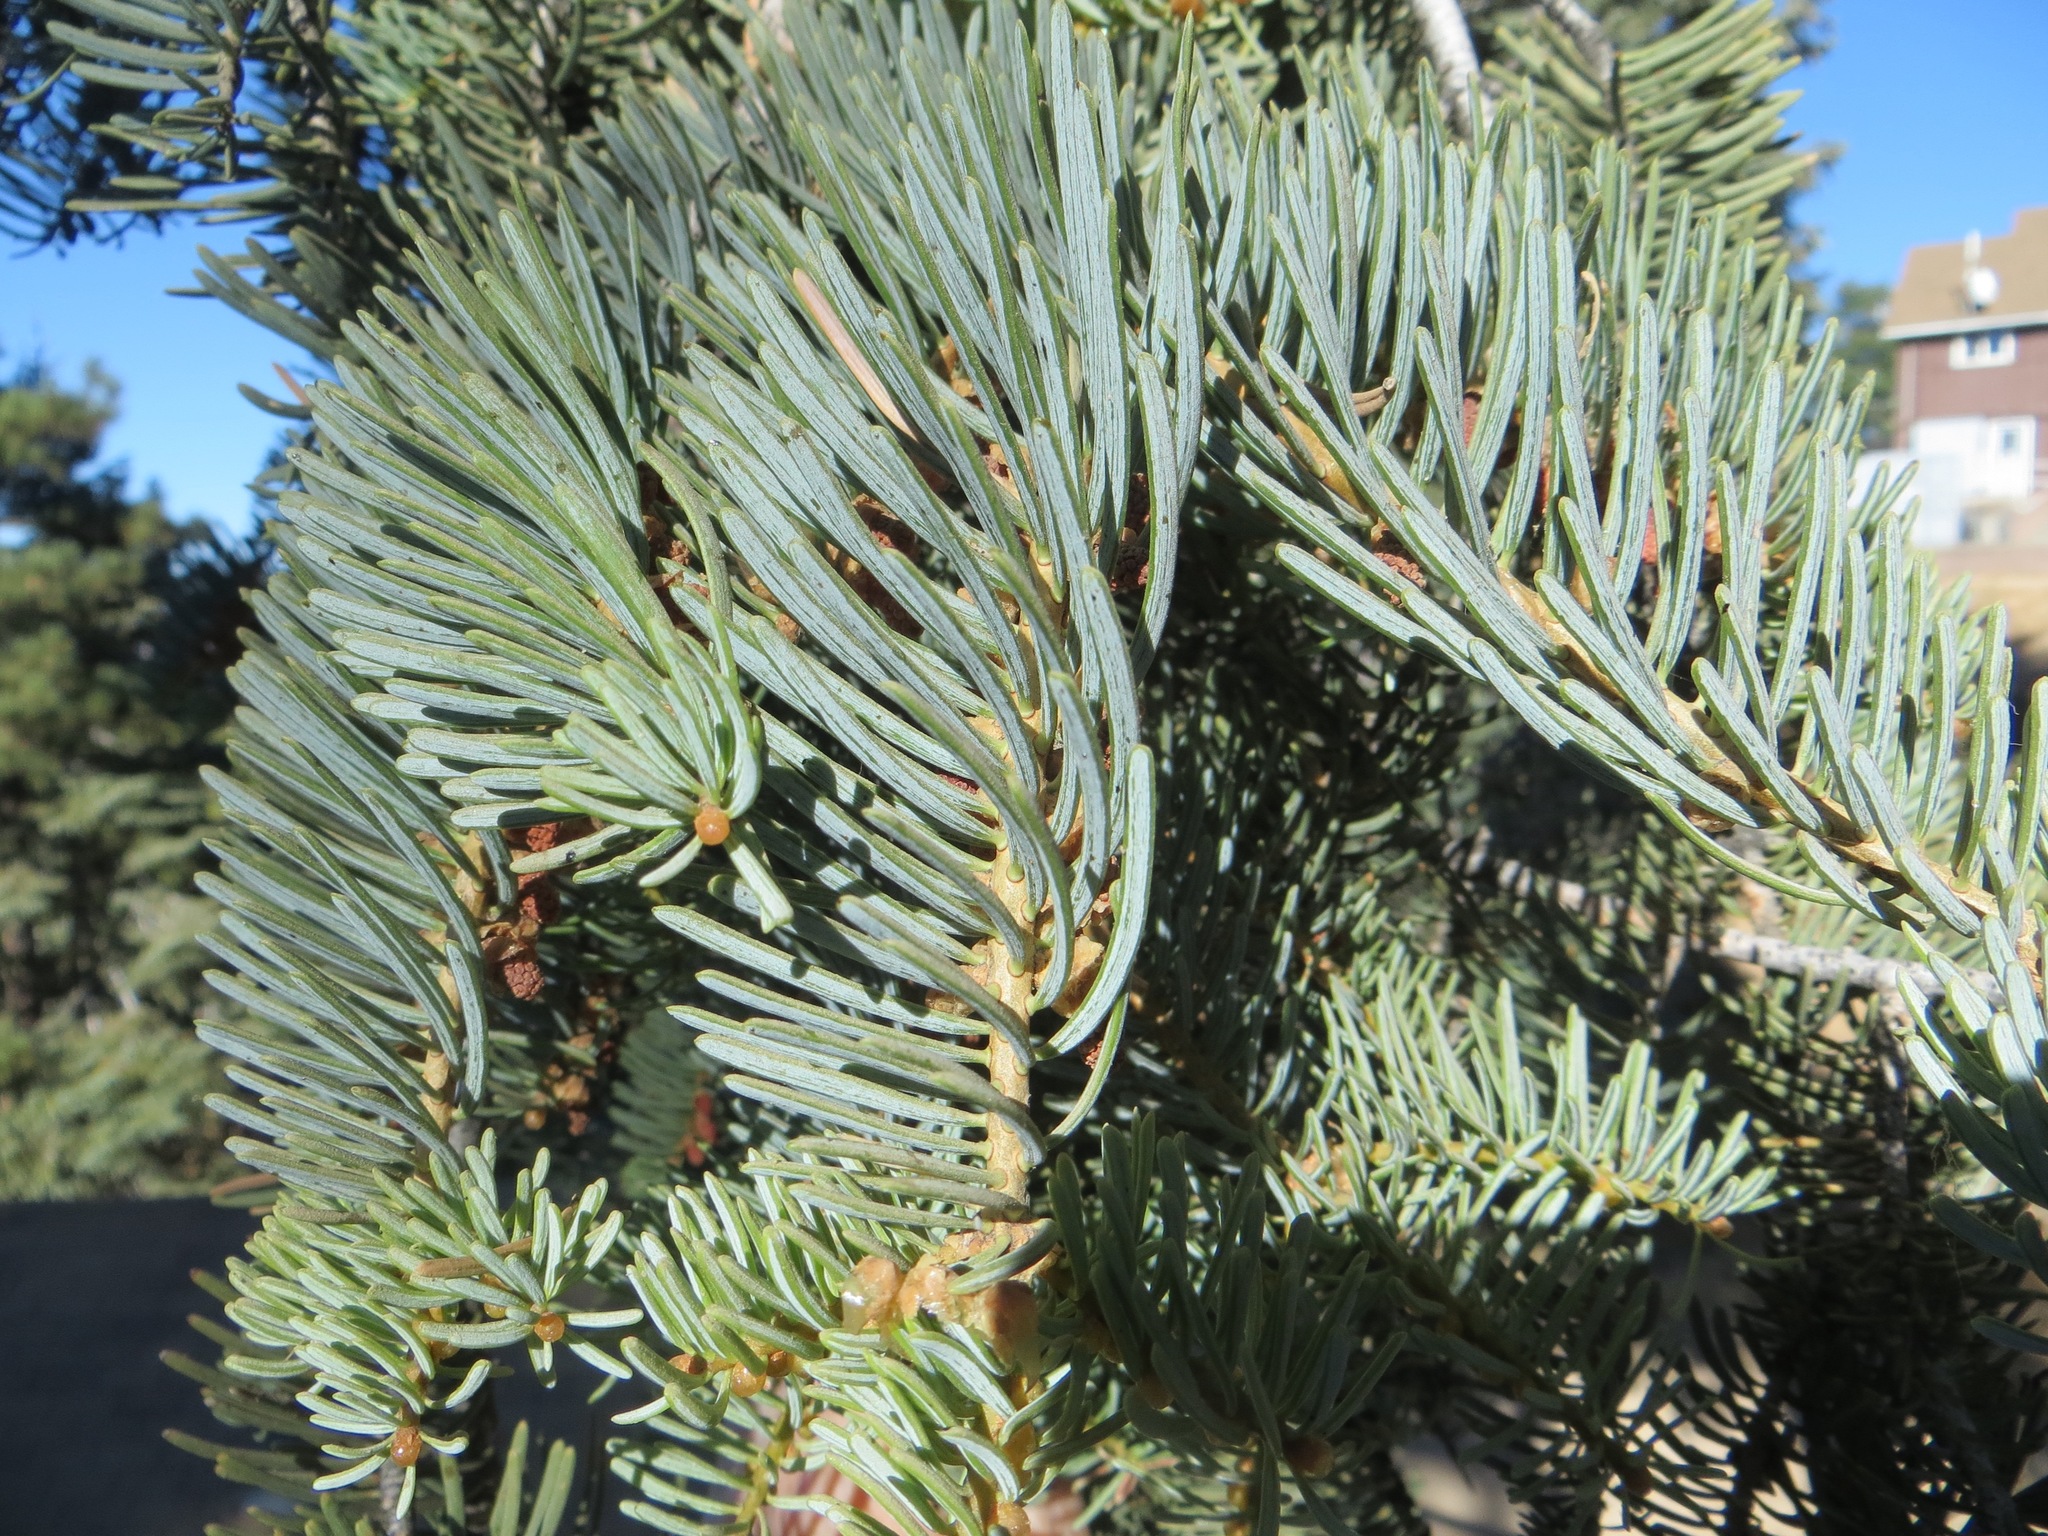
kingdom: Plantae
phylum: Tracheophyta
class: Pinopsida
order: Pinales
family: Pinaceae
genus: Abies
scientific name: Abies concolor
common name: Colorado fir
